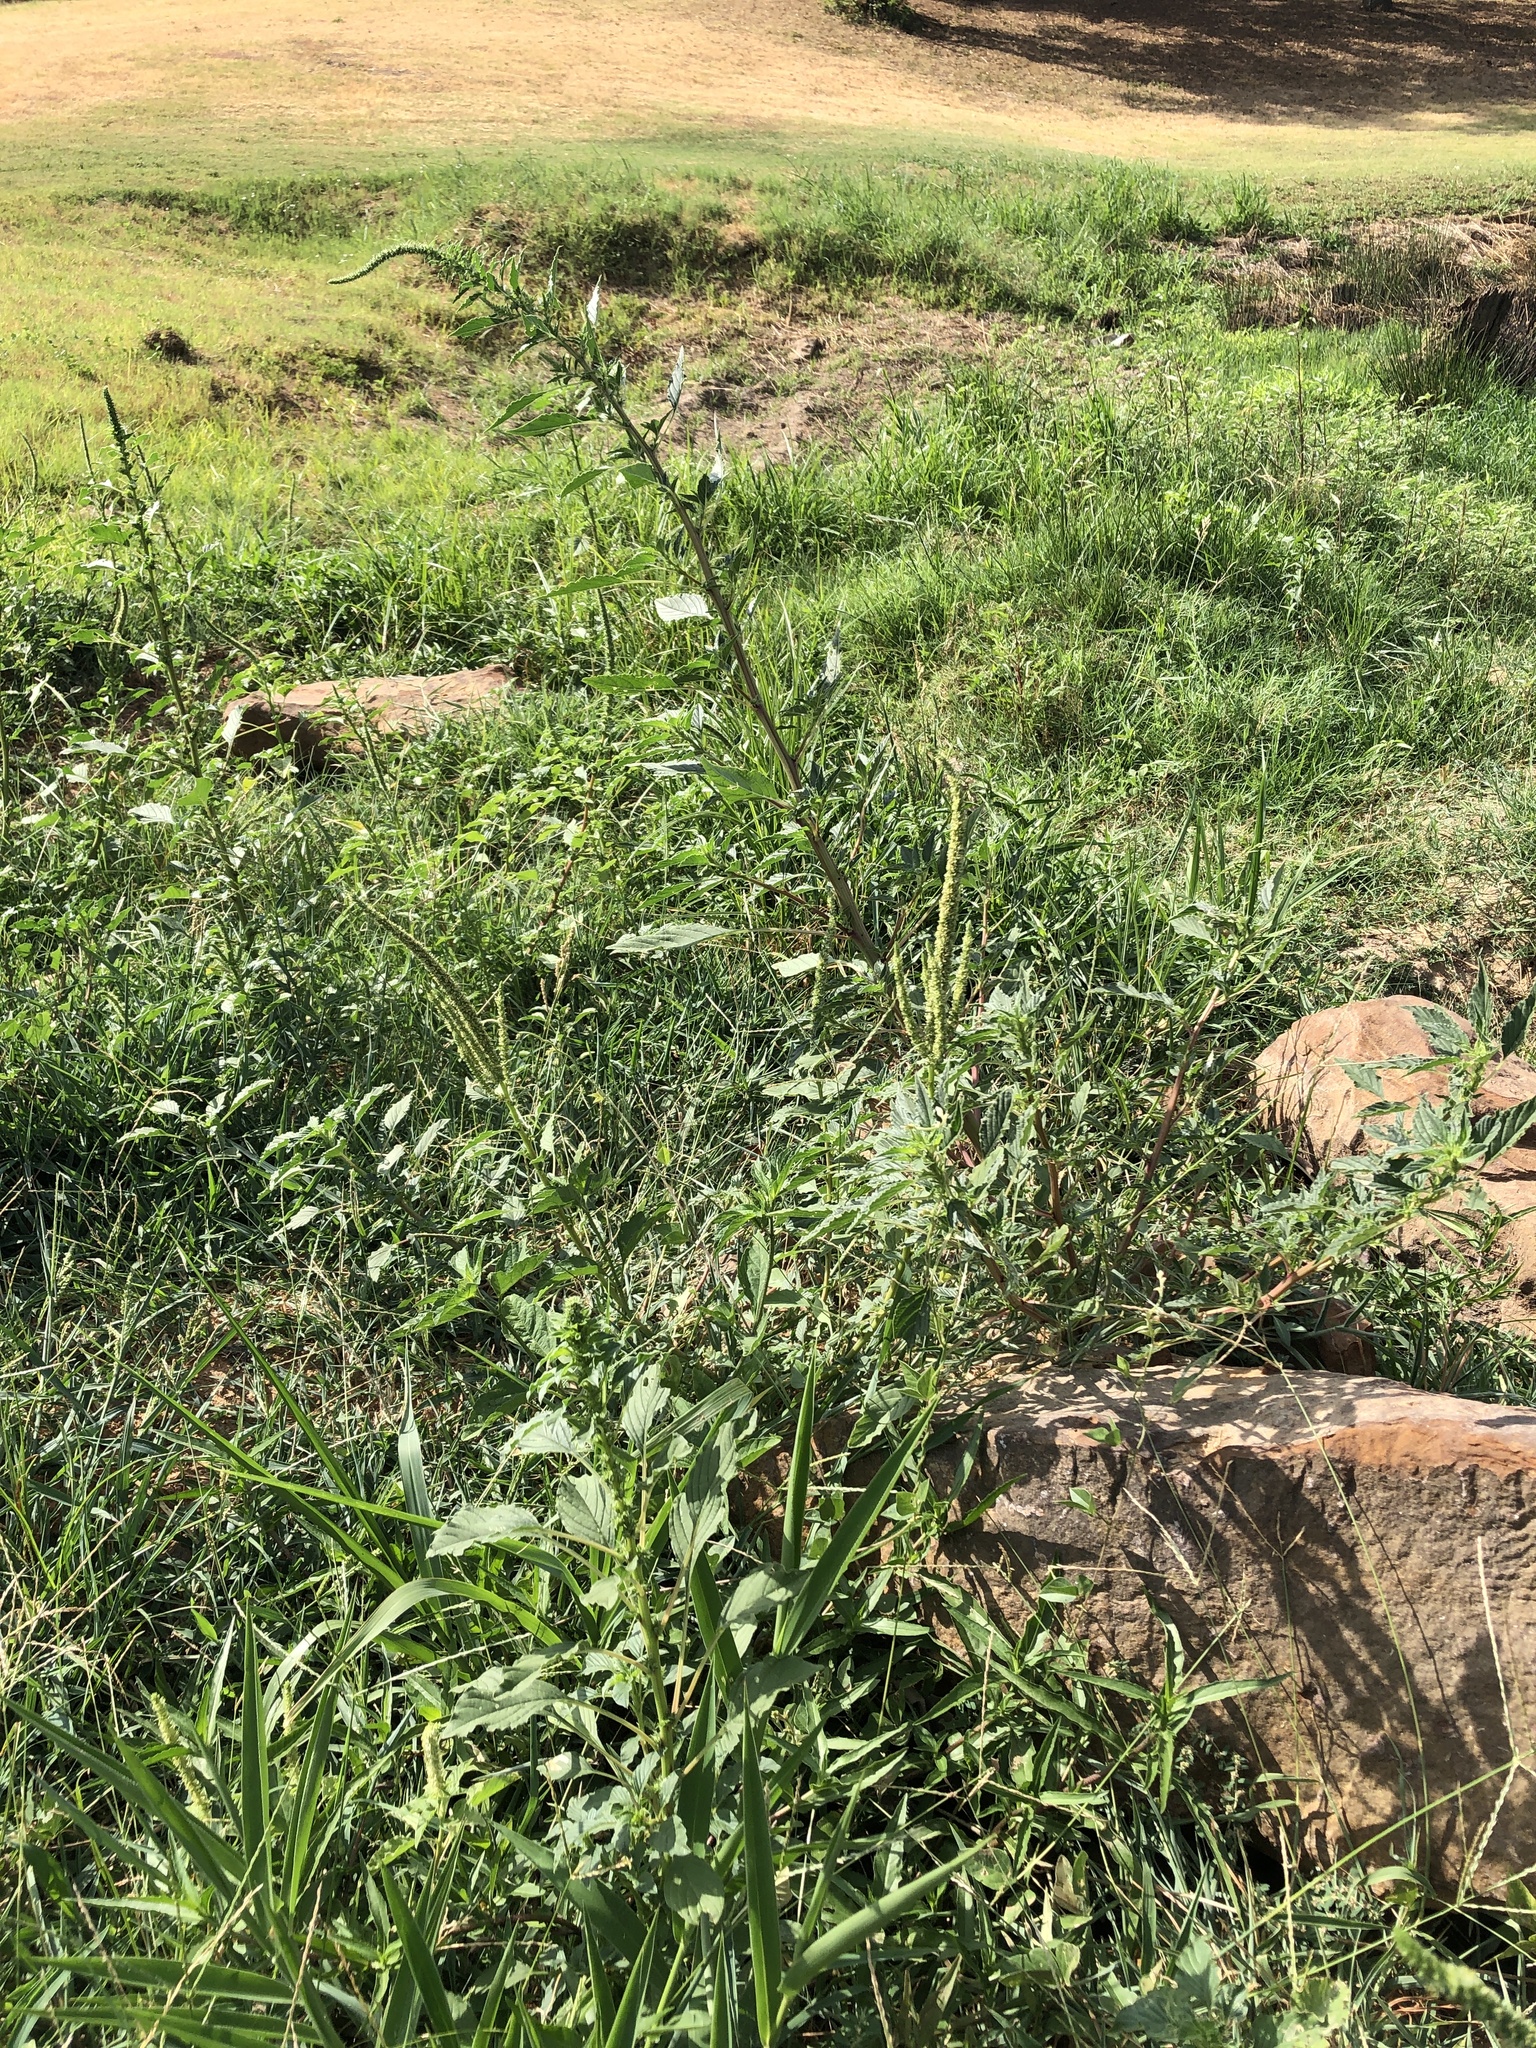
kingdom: Plantae
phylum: Tracheophyta
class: Magnoliopsida
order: Caryophyllales
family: Amaranthaceae
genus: Amaranthus
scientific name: Amaranthus palmeri
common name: Dioecious amaranth
